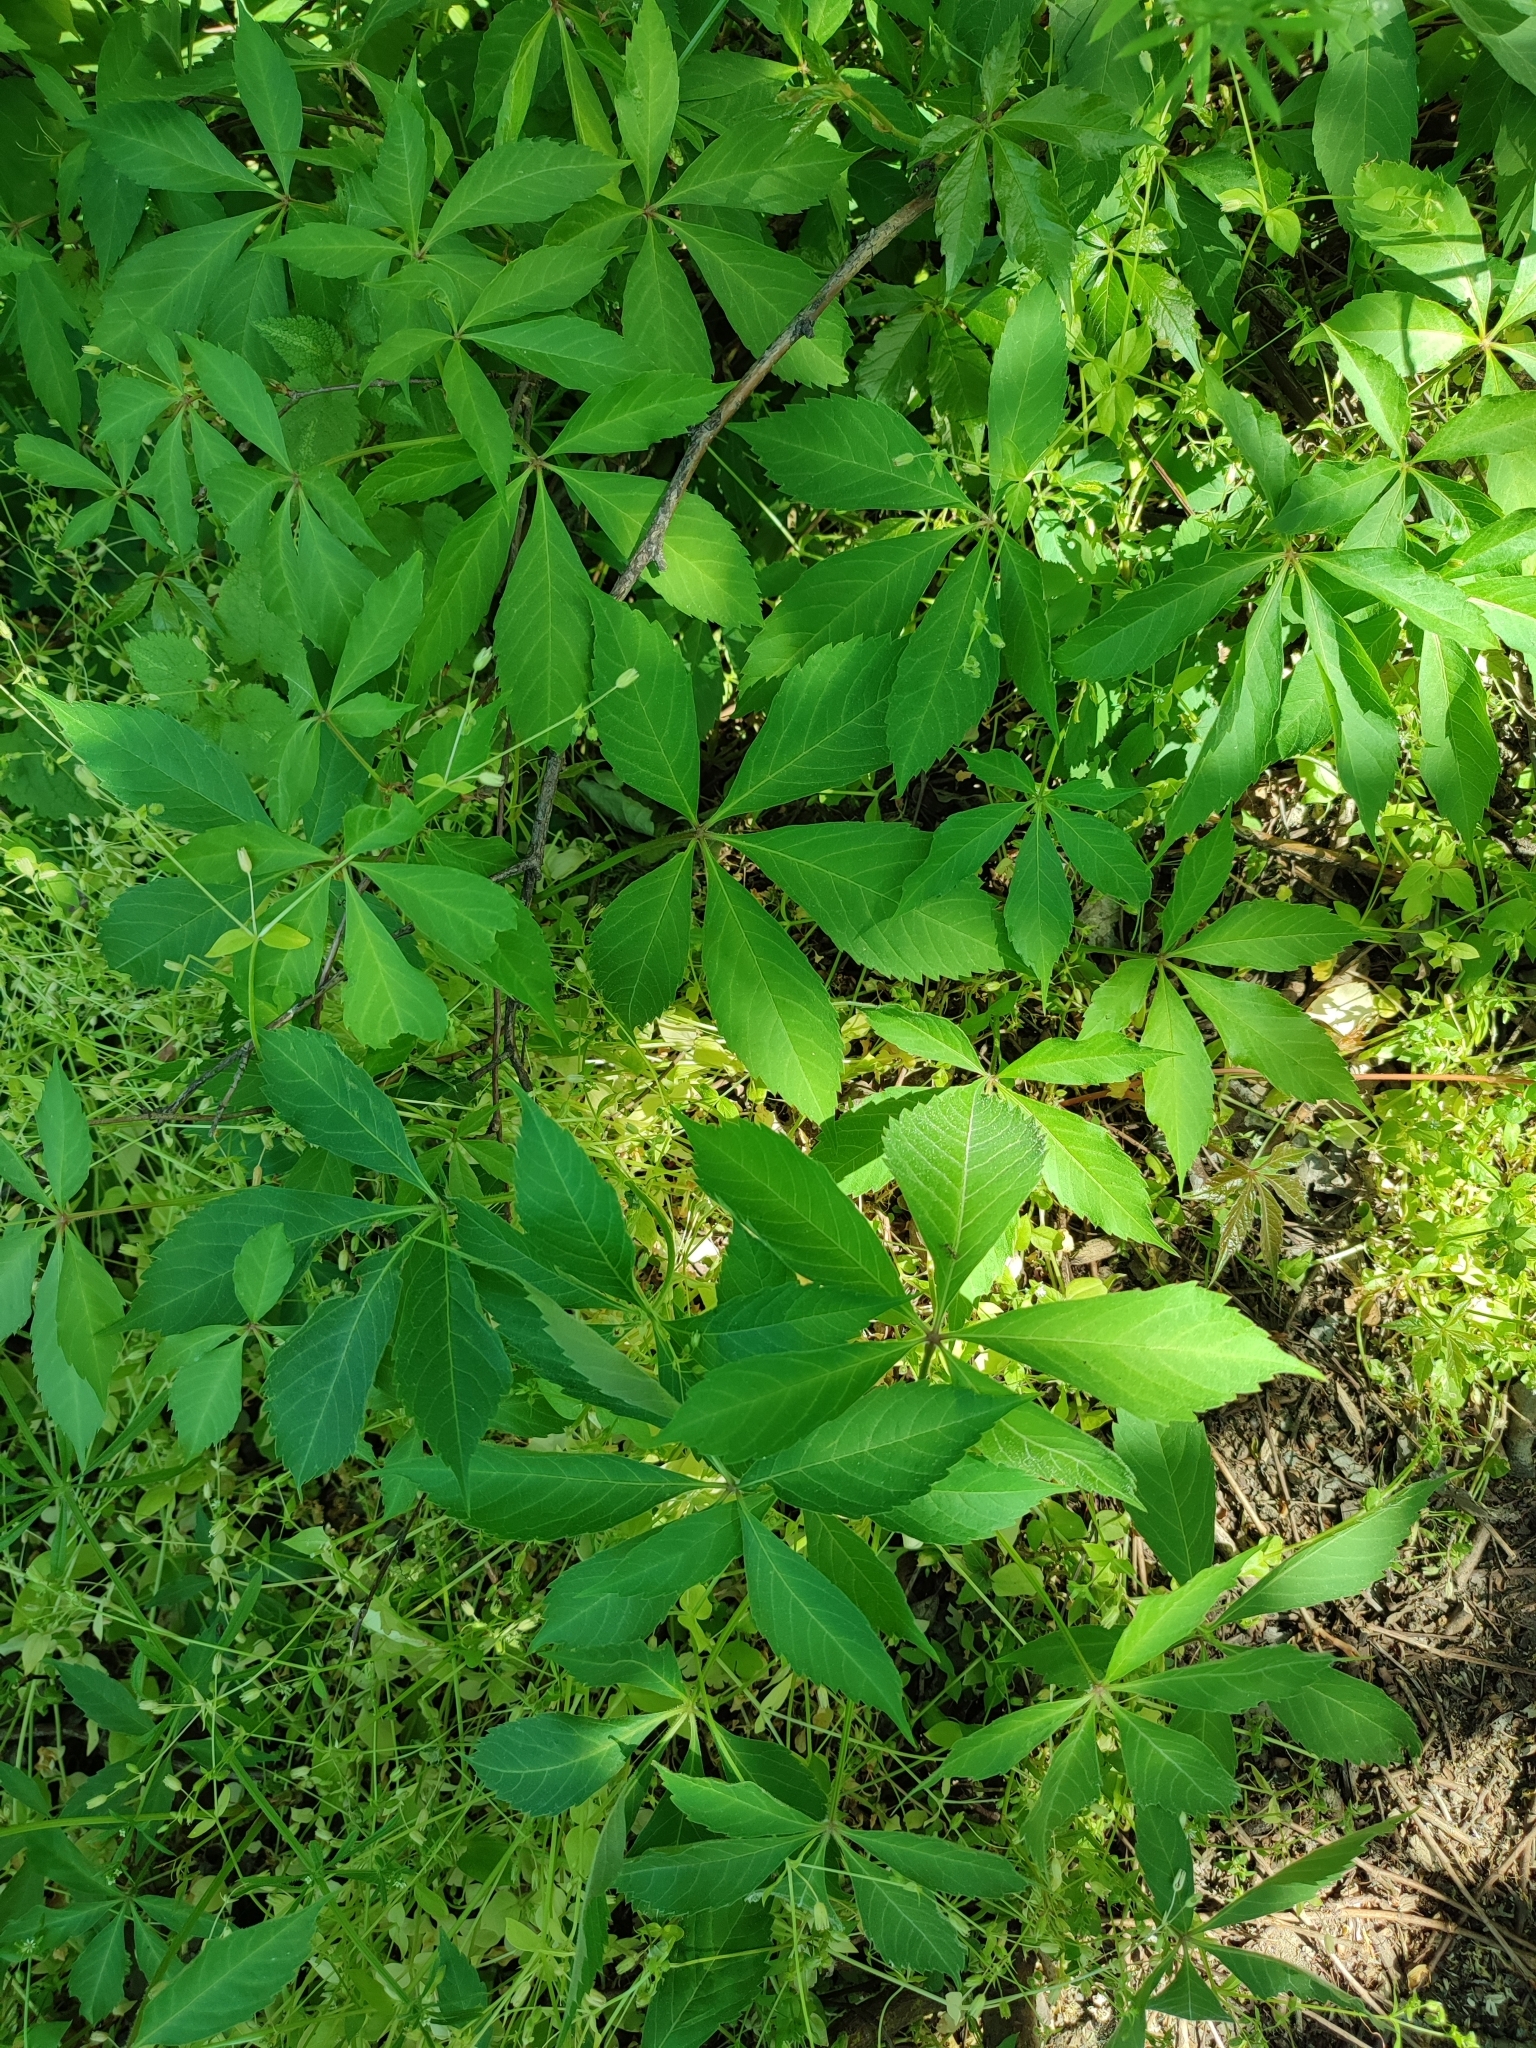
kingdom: Plantae
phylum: Tracheophyta
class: Magnoliopsida
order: Vitales
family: Vitaceae
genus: Parthenocissus
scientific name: Parthenocissus inserta
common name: False virginia-creeper
